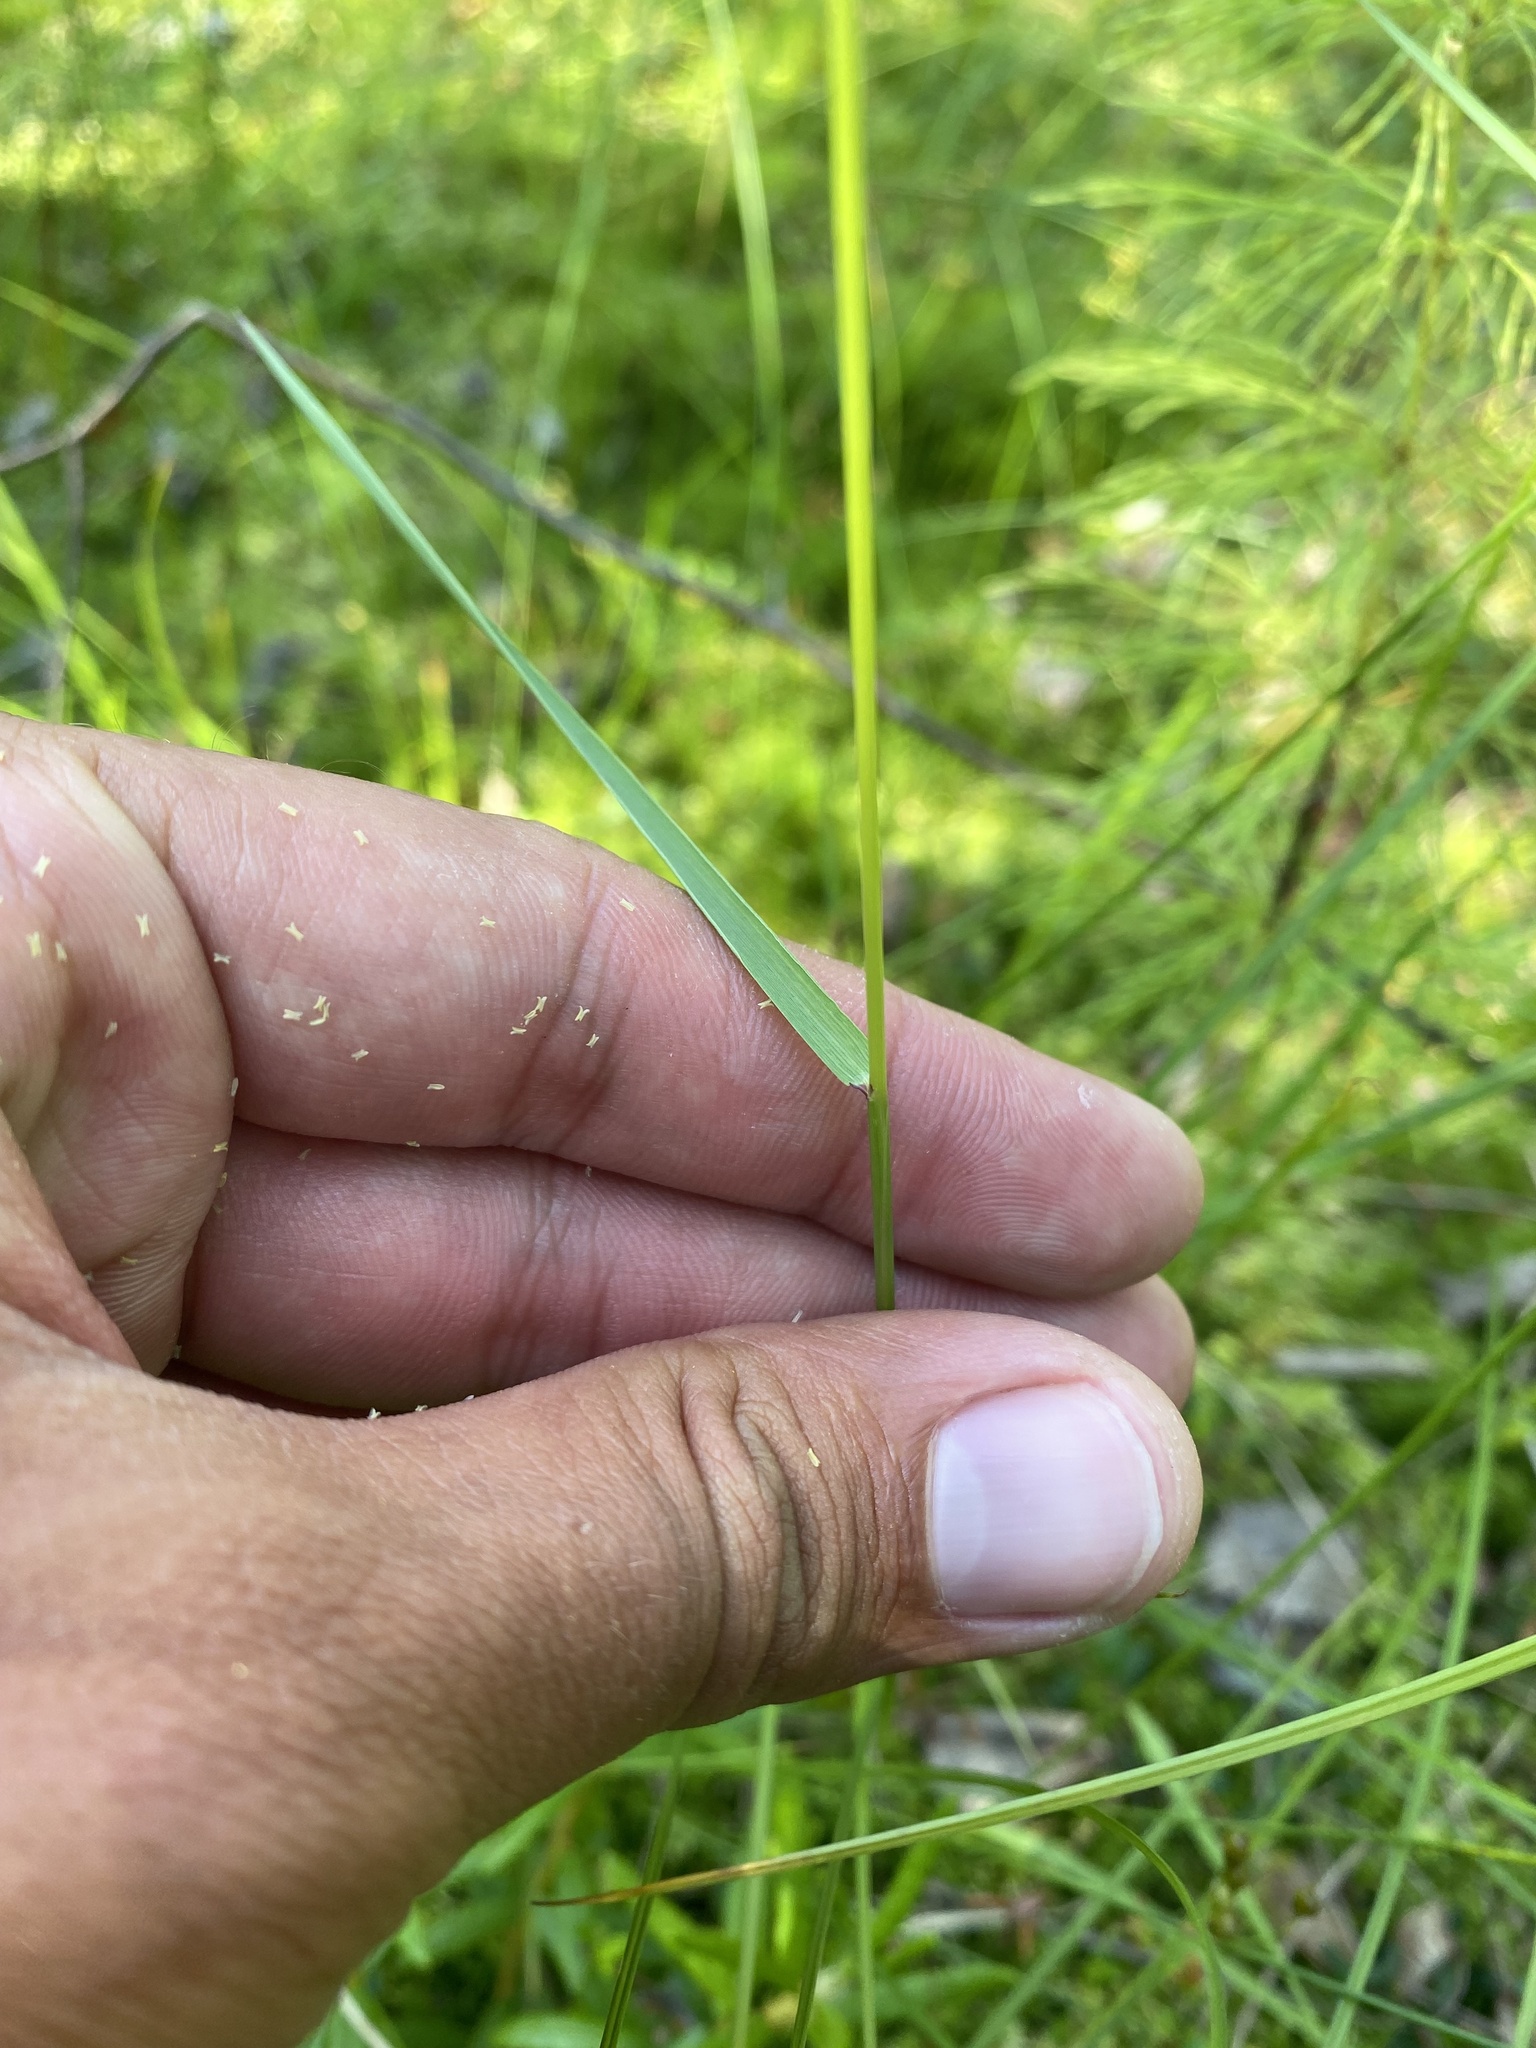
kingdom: Plantae
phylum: Tracheophyta
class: Liliopsida
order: Poales
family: Poaceae
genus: Agrostis
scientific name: Agrostis capillaris
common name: Colonial bentgrass
